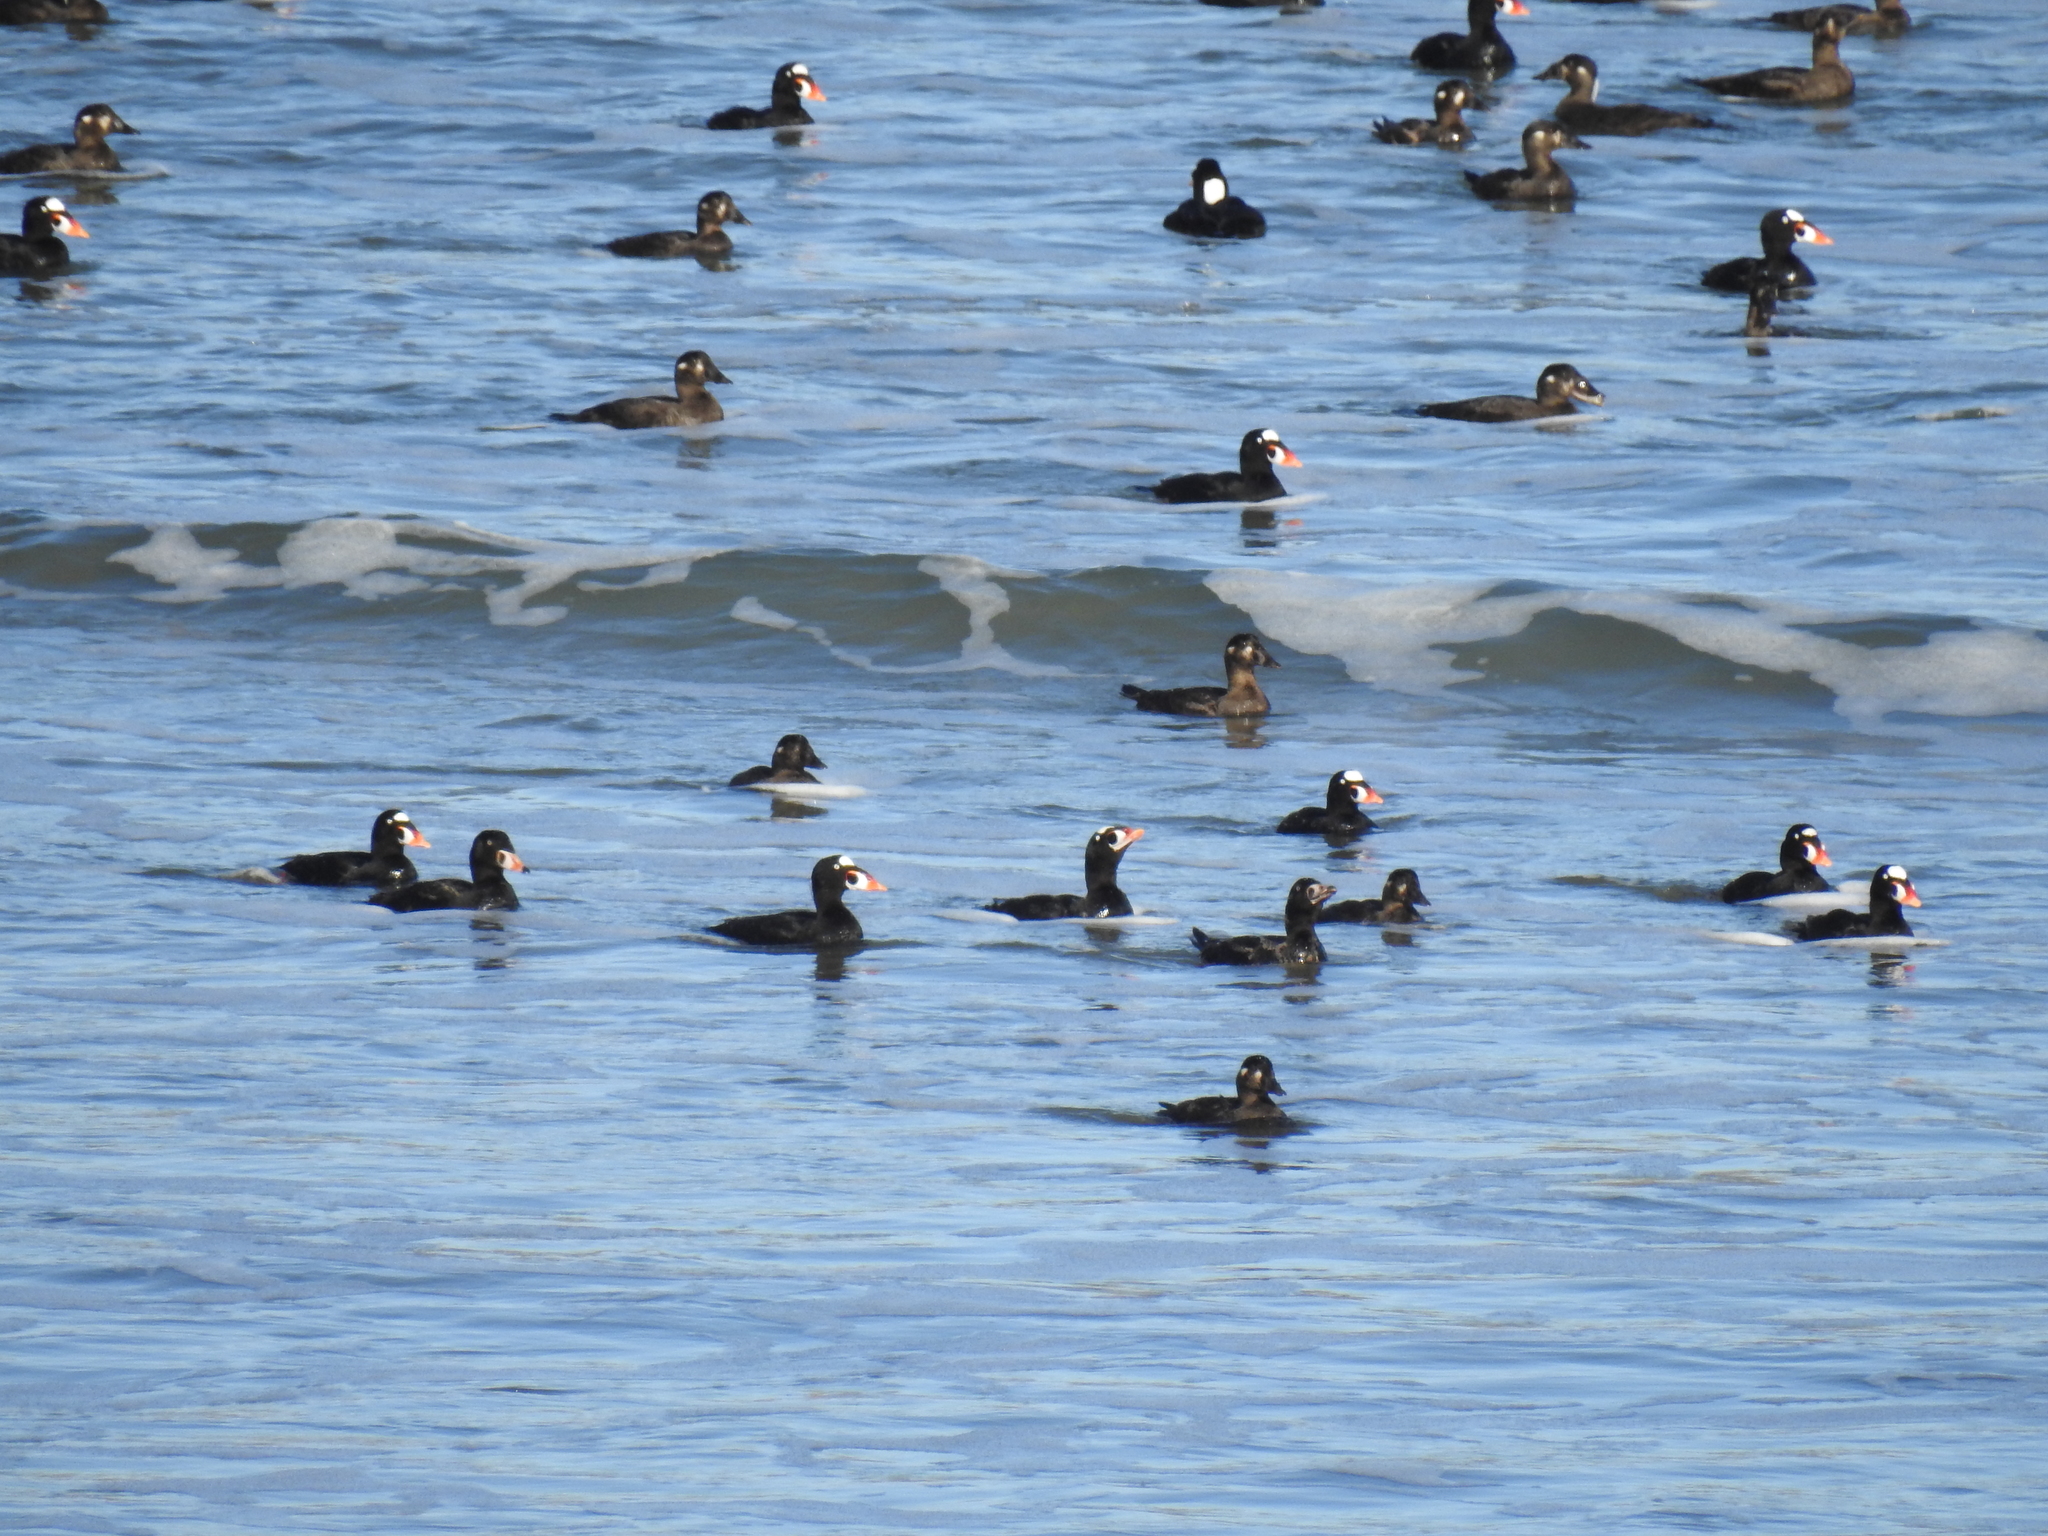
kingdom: Animalia
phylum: Chordata
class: Aves
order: Anseriformes
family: Anatidae
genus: Melanitta
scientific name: Melanitta perspicillata
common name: Surf scoter
